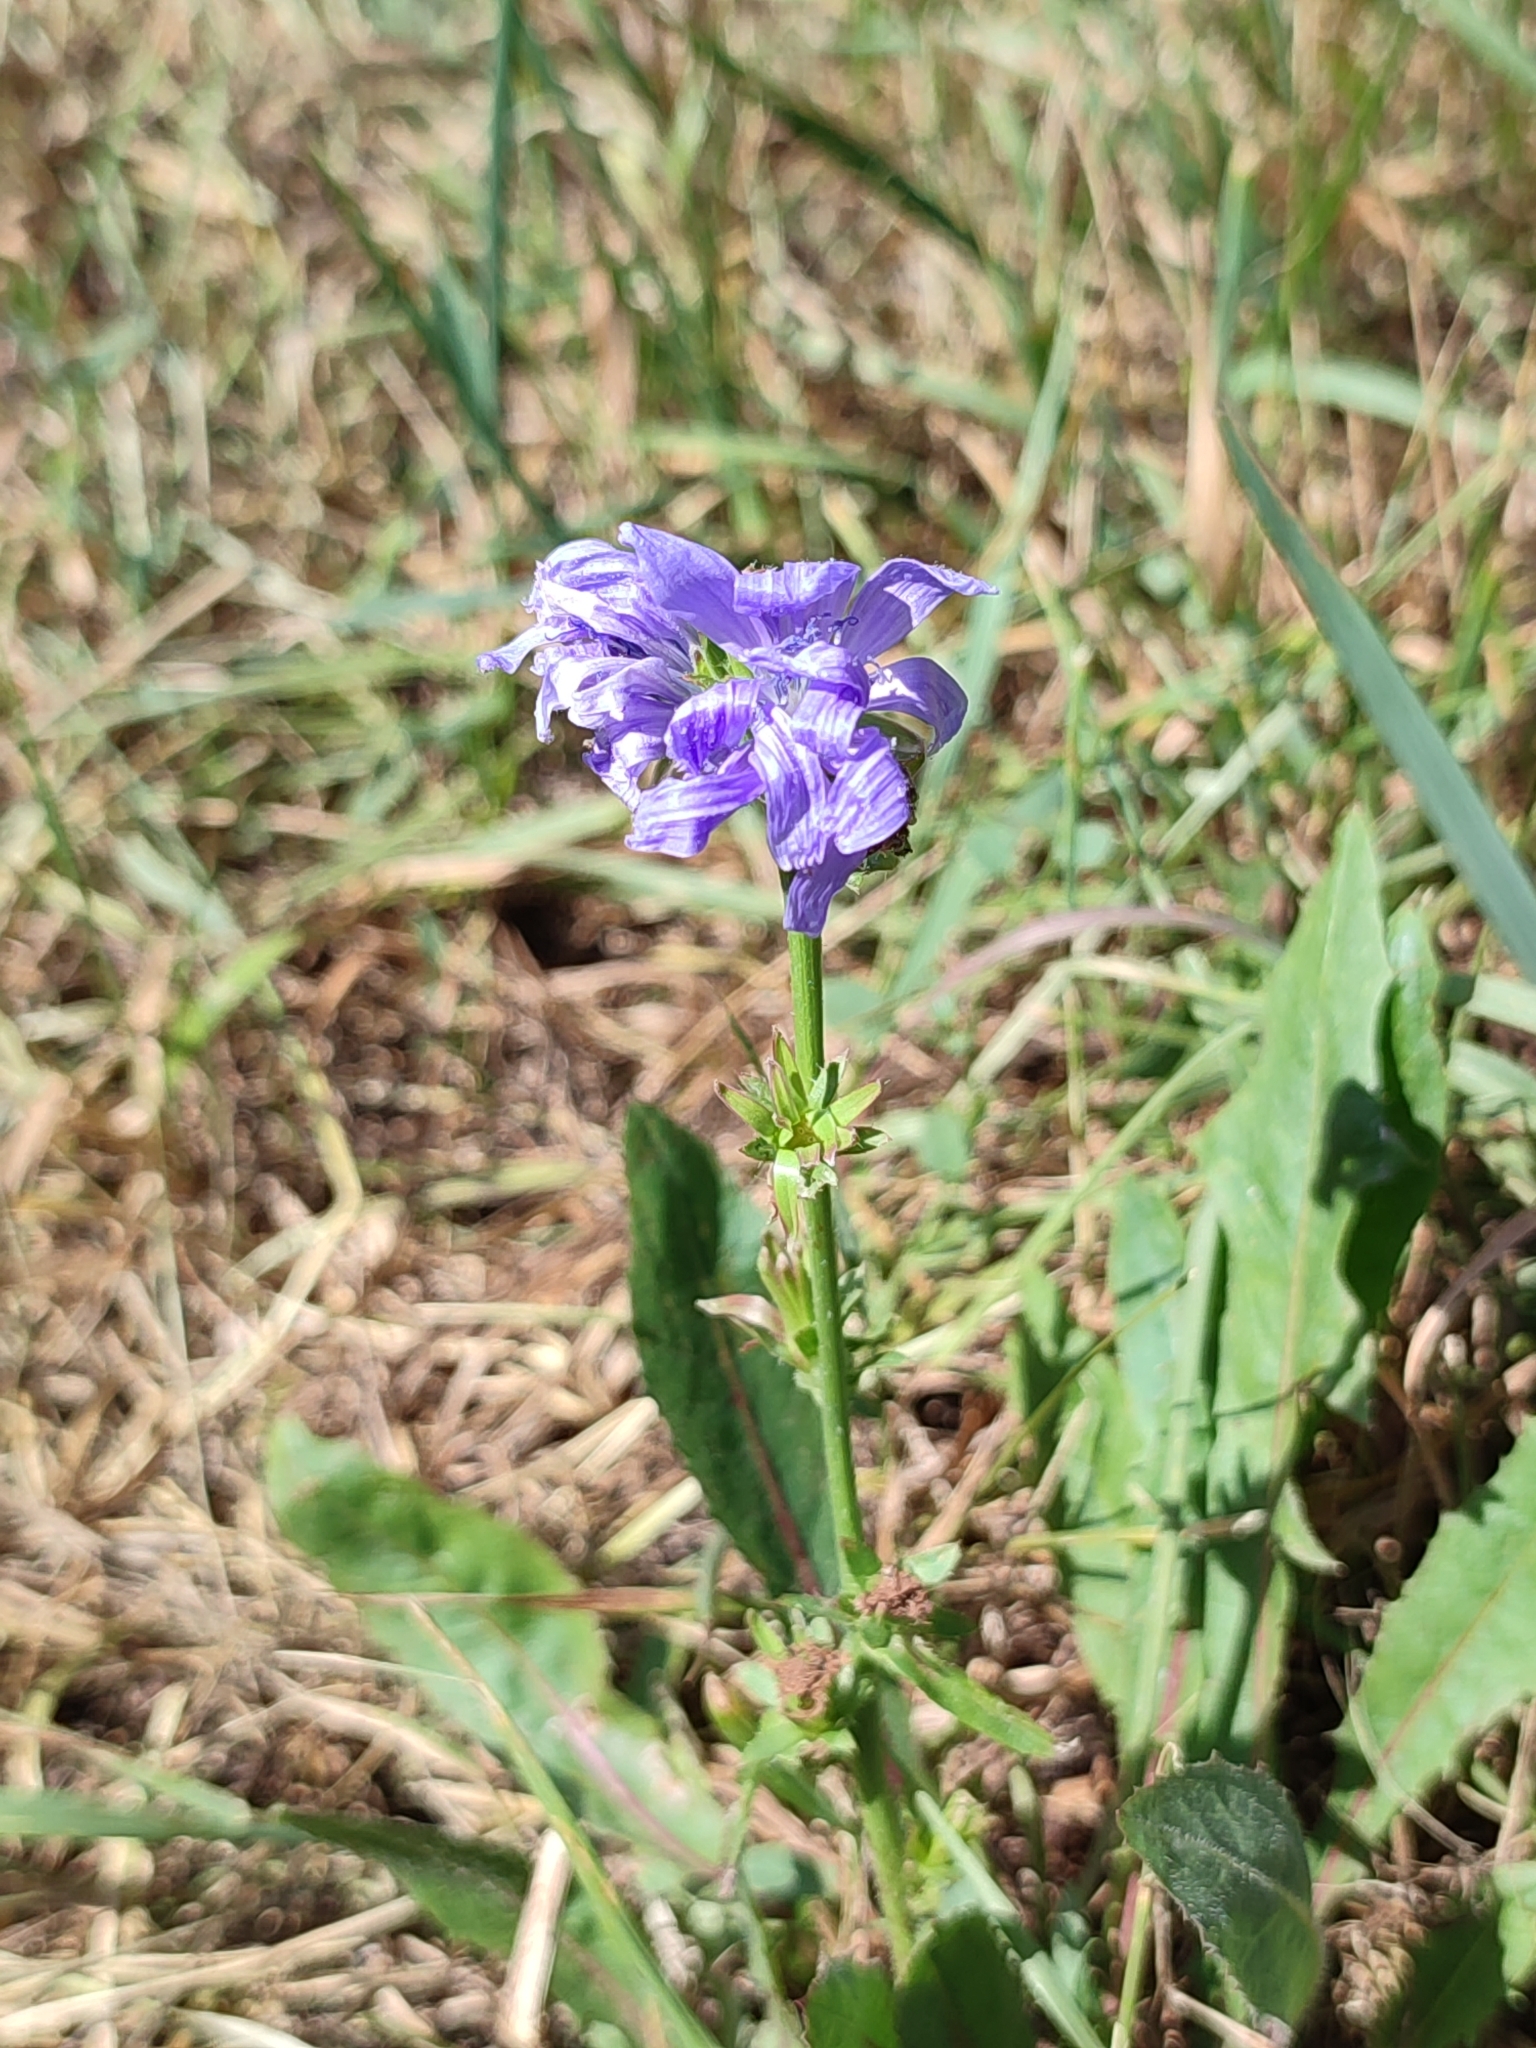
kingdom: Plantae
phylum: Tracheophyta
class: Magnoliopsida
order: Asterales
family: Asteraceae
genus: Cichorium
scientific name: Cichorium intybus
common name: Chicory
